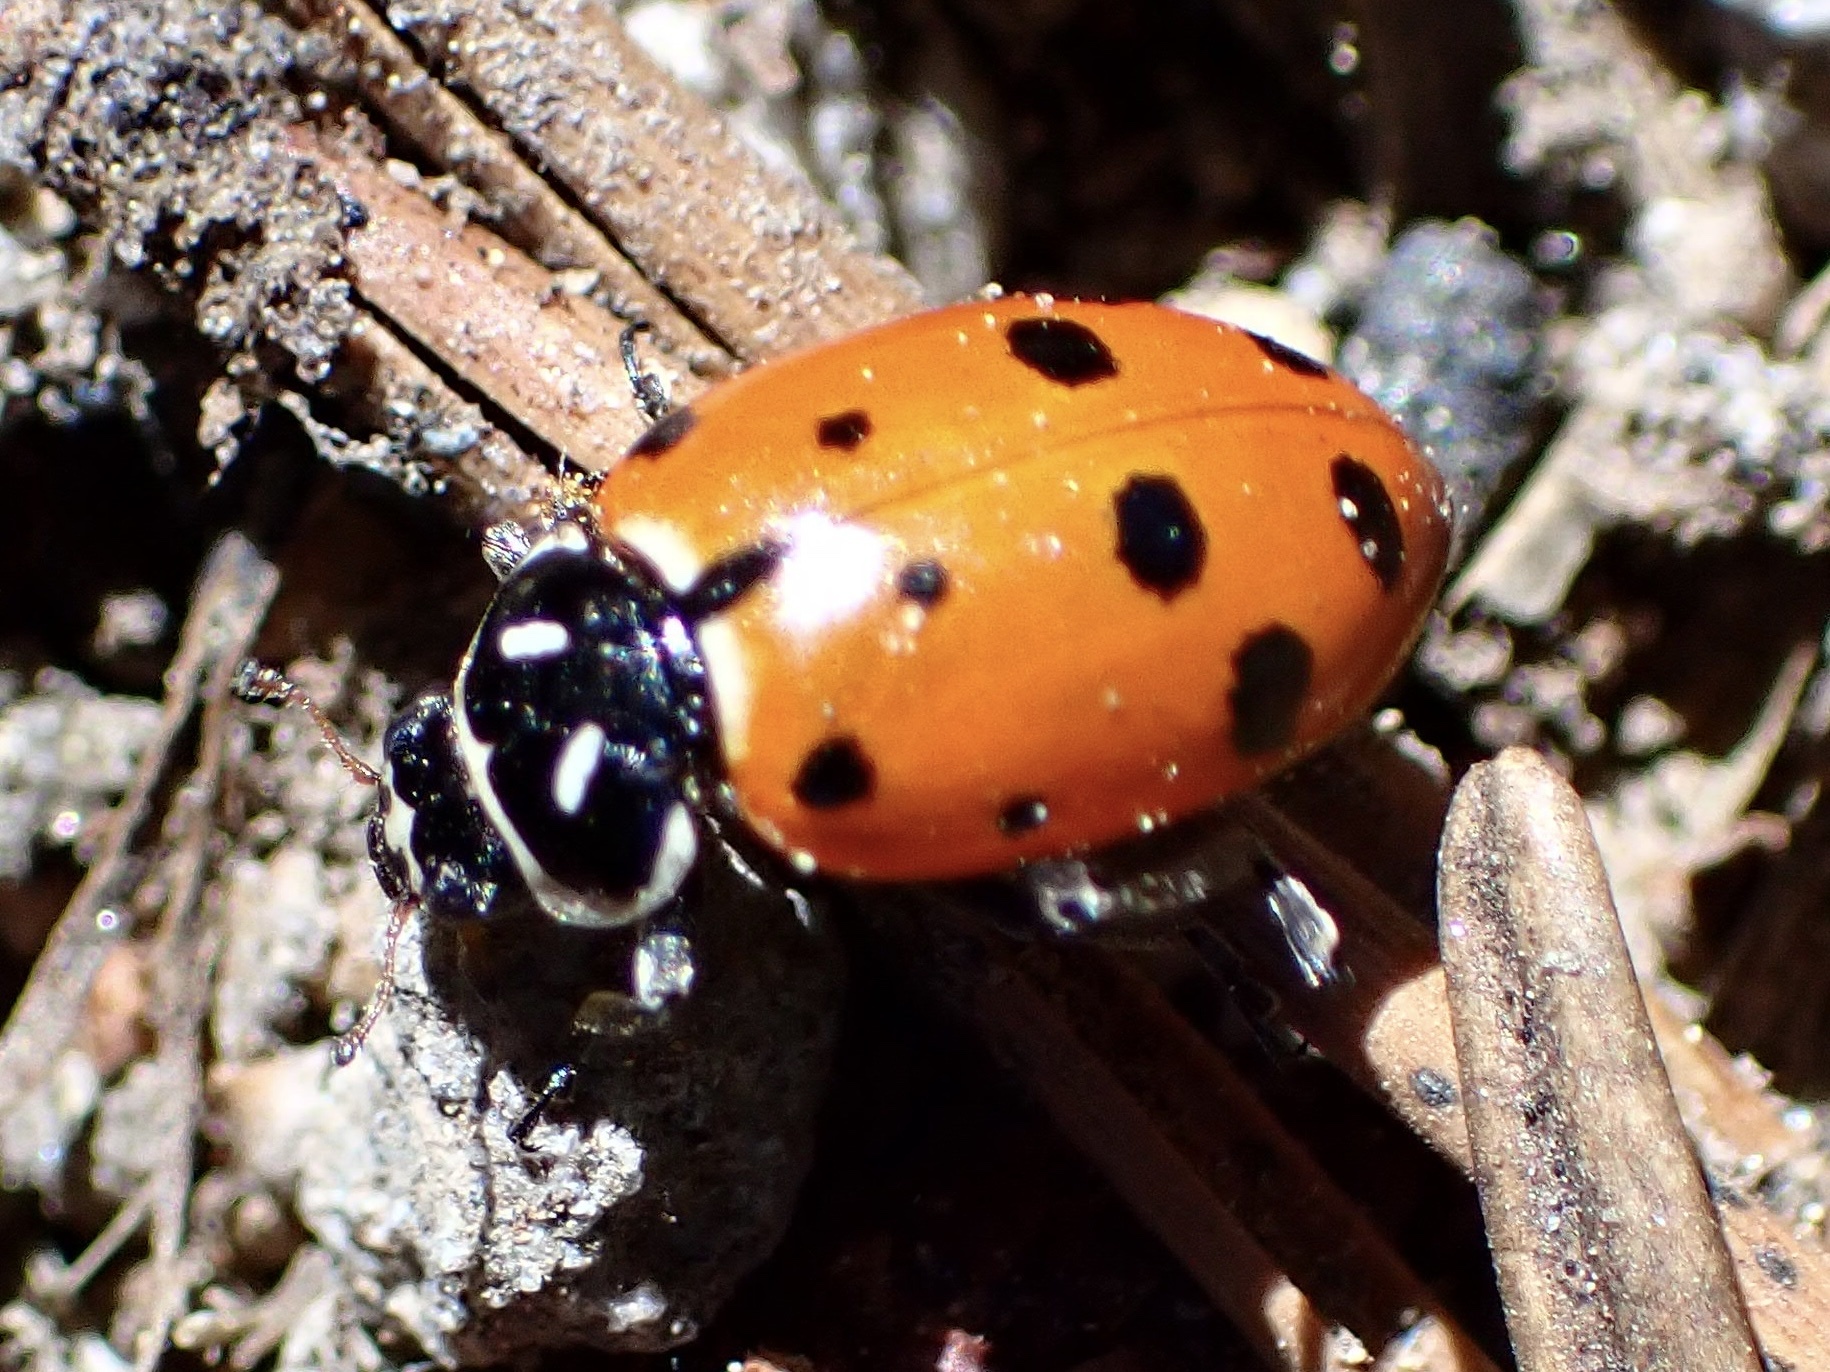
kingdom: Animalia
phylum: Arthropoda
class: Insecta
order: Coleoptera
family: Coccinellidae
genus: Hippodamia
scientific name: Hippodamia convergens
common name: Convergent lady beetle
